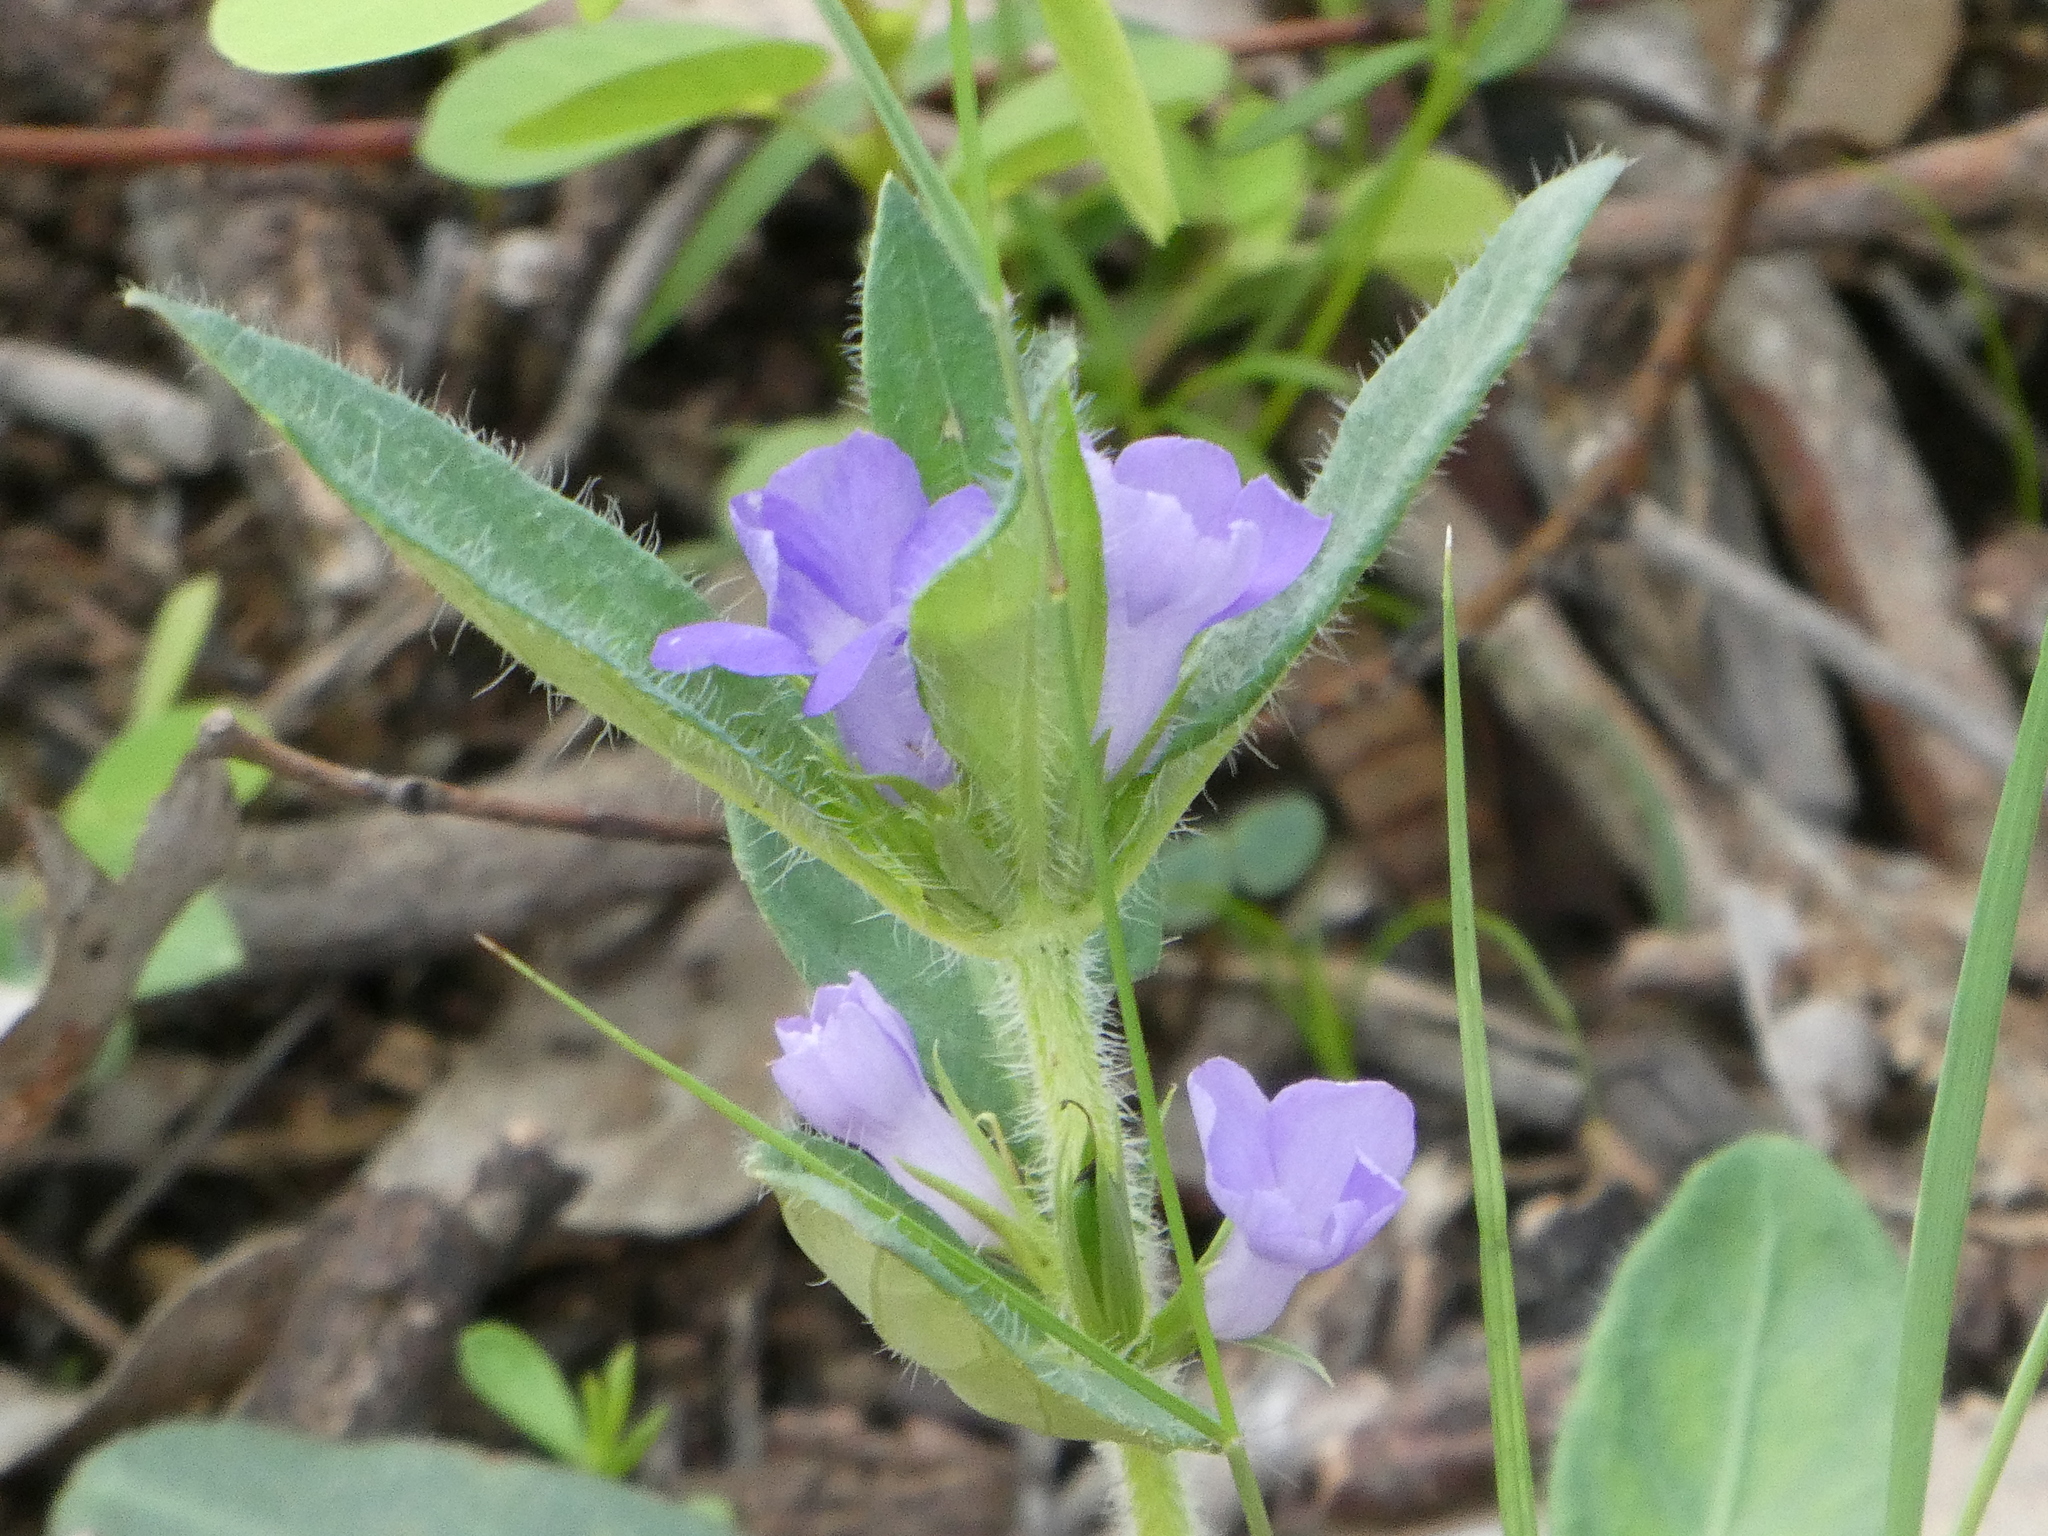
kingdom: Plantae
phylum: Tracheophyta
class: Magnoliopsida
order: Lamiales
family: Acanthaceae
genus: Brunoniella
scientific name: Brunoniella australis
